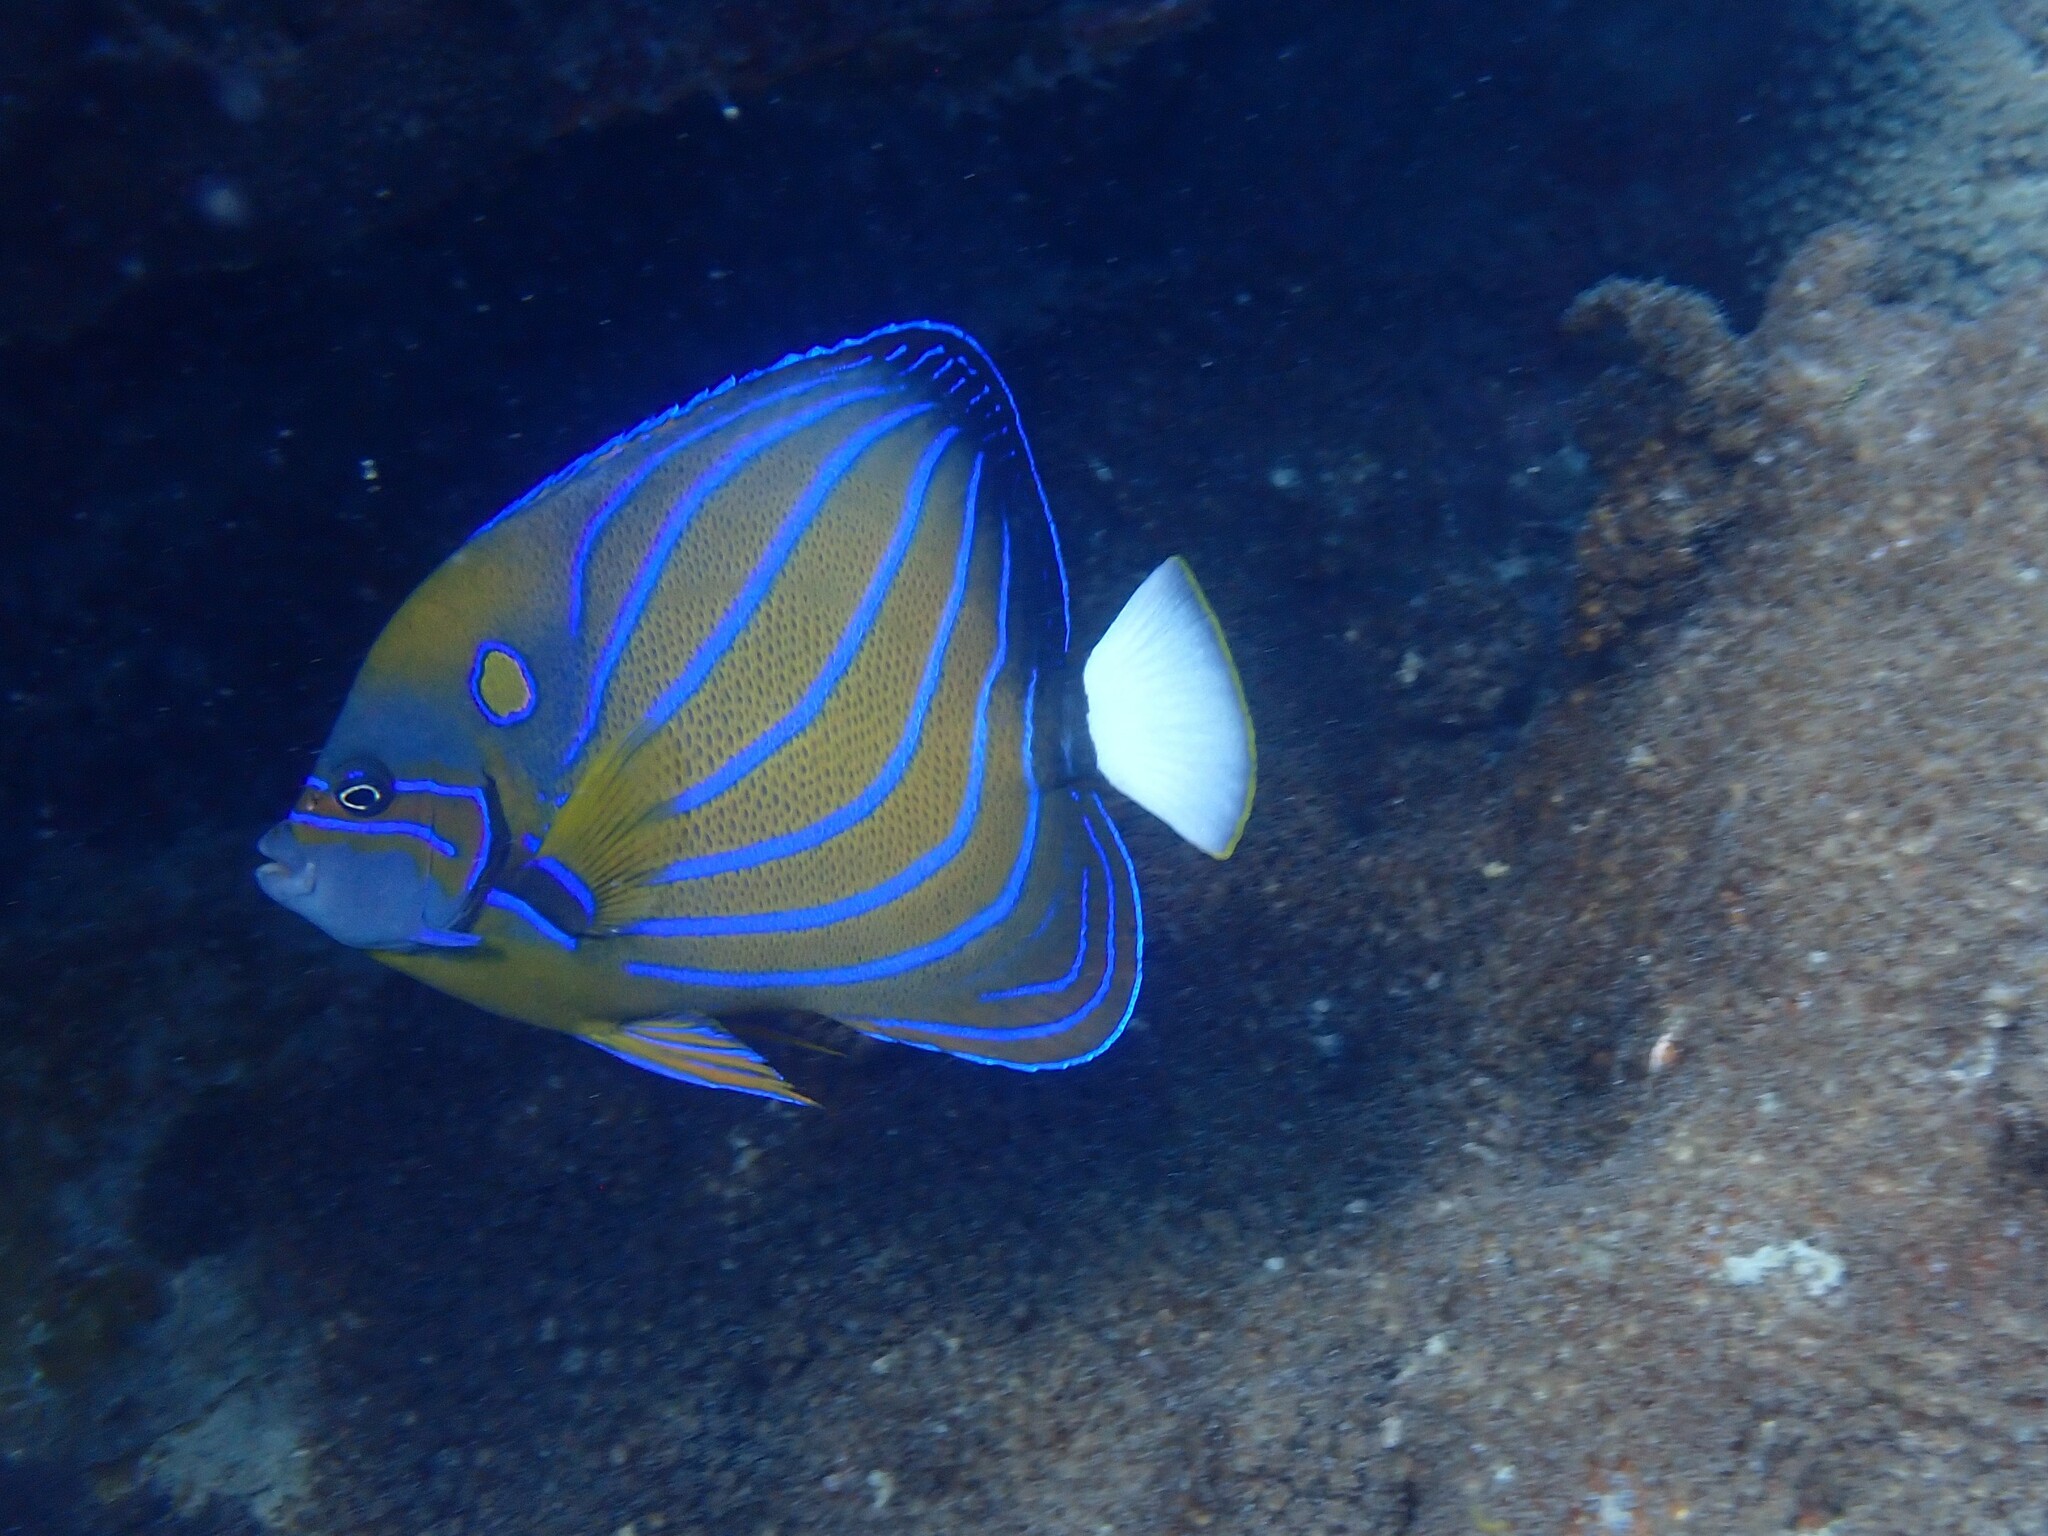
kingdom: Animalia
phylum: Chordata
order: Perciformes
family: Pomacanthidae
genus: Pomacanthus
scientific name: Pomacanthus annularis
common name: Bluering angelfish
